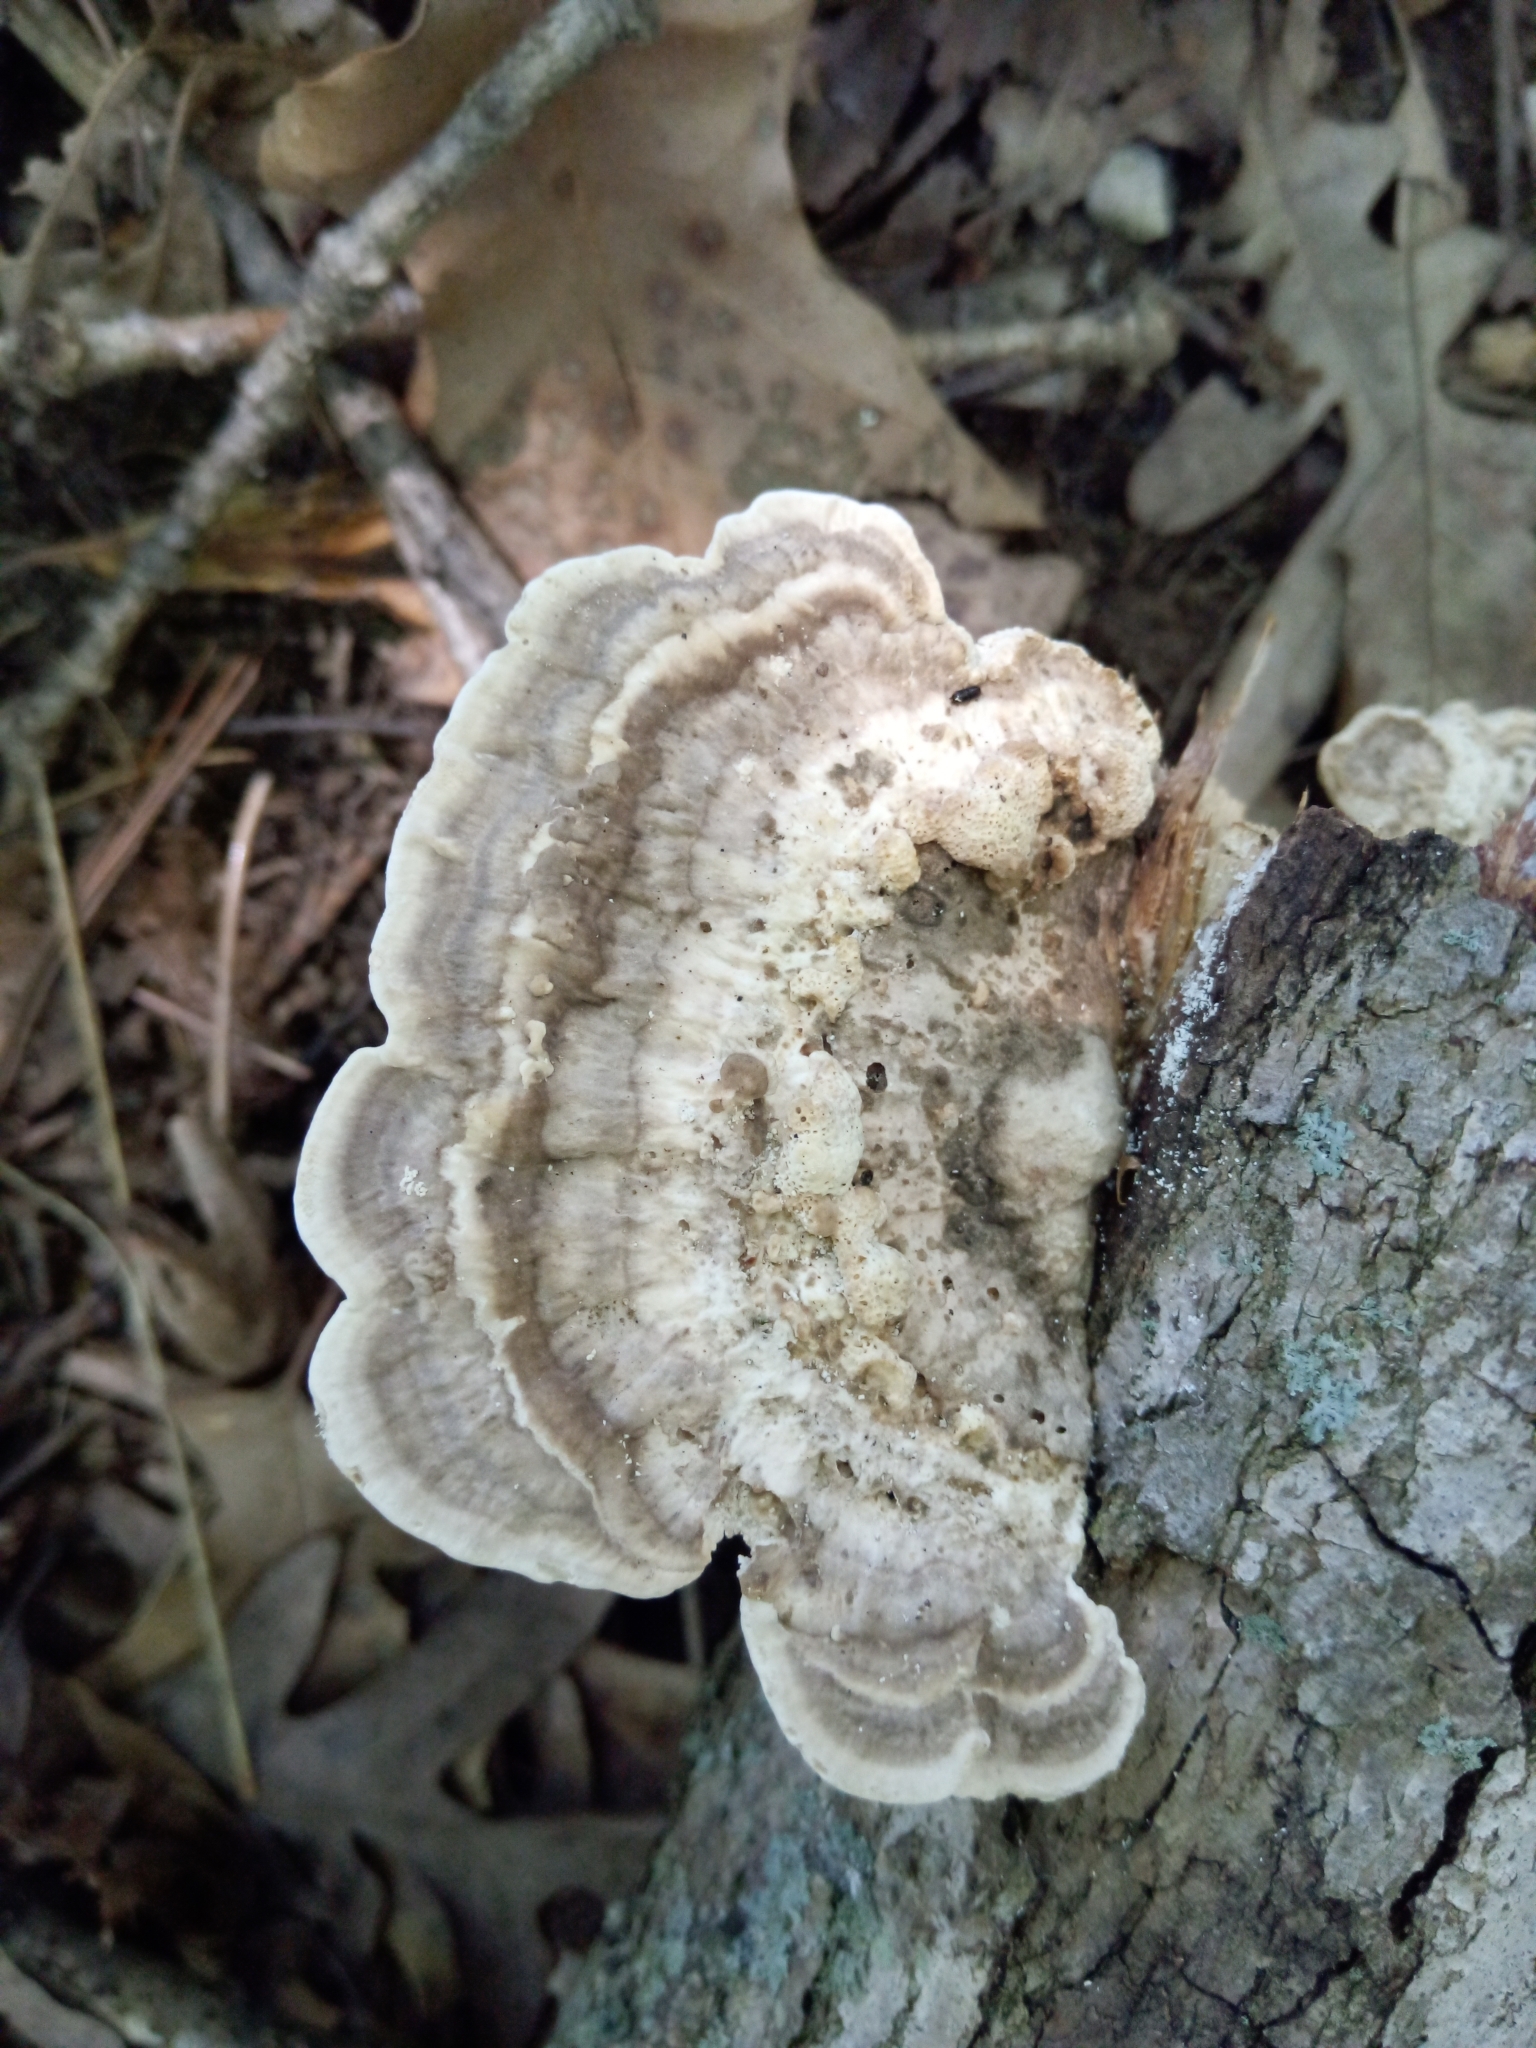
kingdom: Fungi
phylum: Basidiomycota
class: Agaricomycetes
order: Polyporales
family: Polyporaceae
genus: Trametes
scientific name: Trametes lactinea
